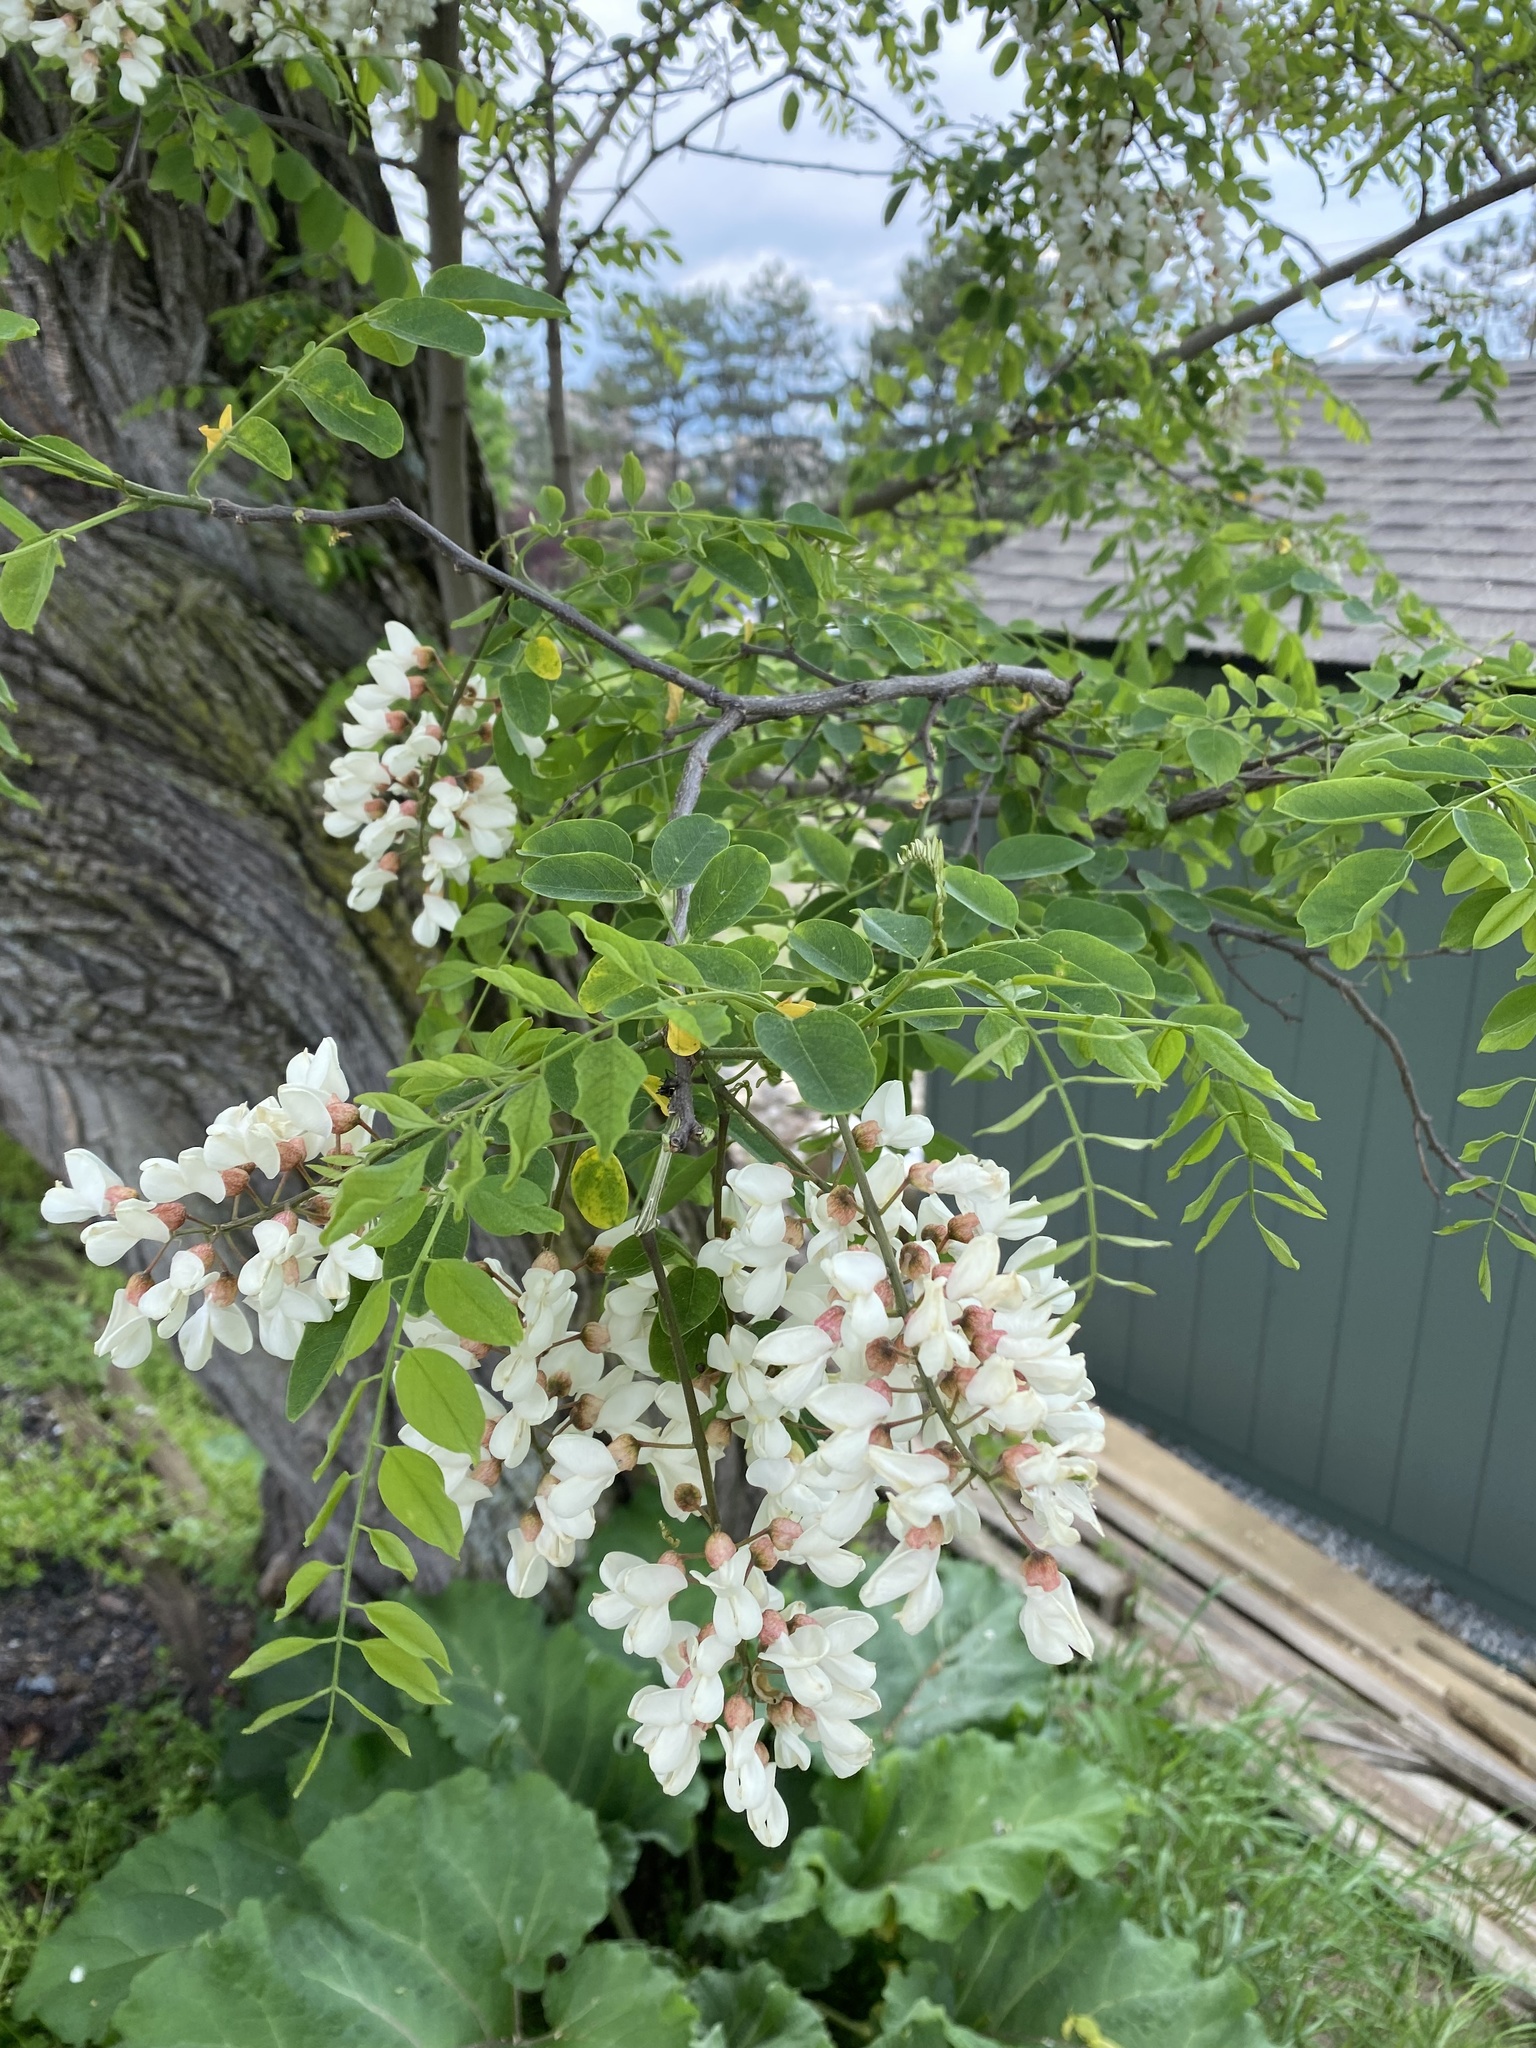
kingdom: Plantae
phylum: Tracheophyta
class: Magnoliopsida
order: Fabales
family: Fabaceae
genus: Robinia
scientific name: Robinia pseudoacacia
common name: Black locust
